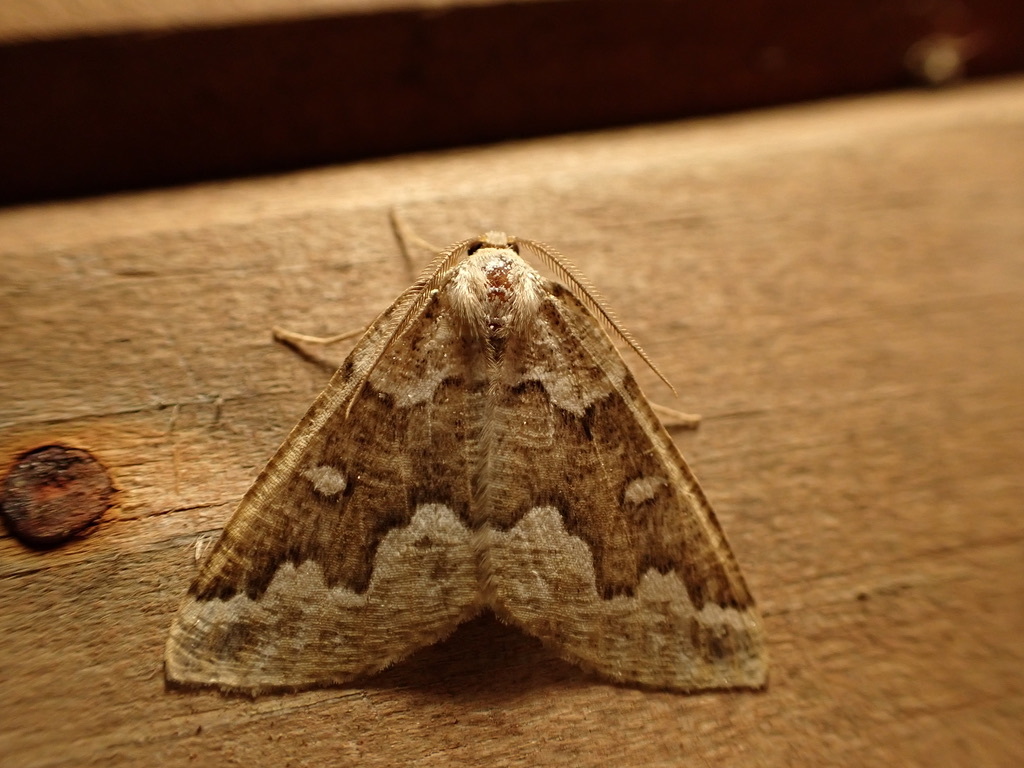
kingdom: Animalia
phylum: Arthropoda
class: Insecta
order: Lepidoptera
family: Geometridae
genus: Caripeta
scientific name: Caripeta divisata
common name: Gray spruce looper
